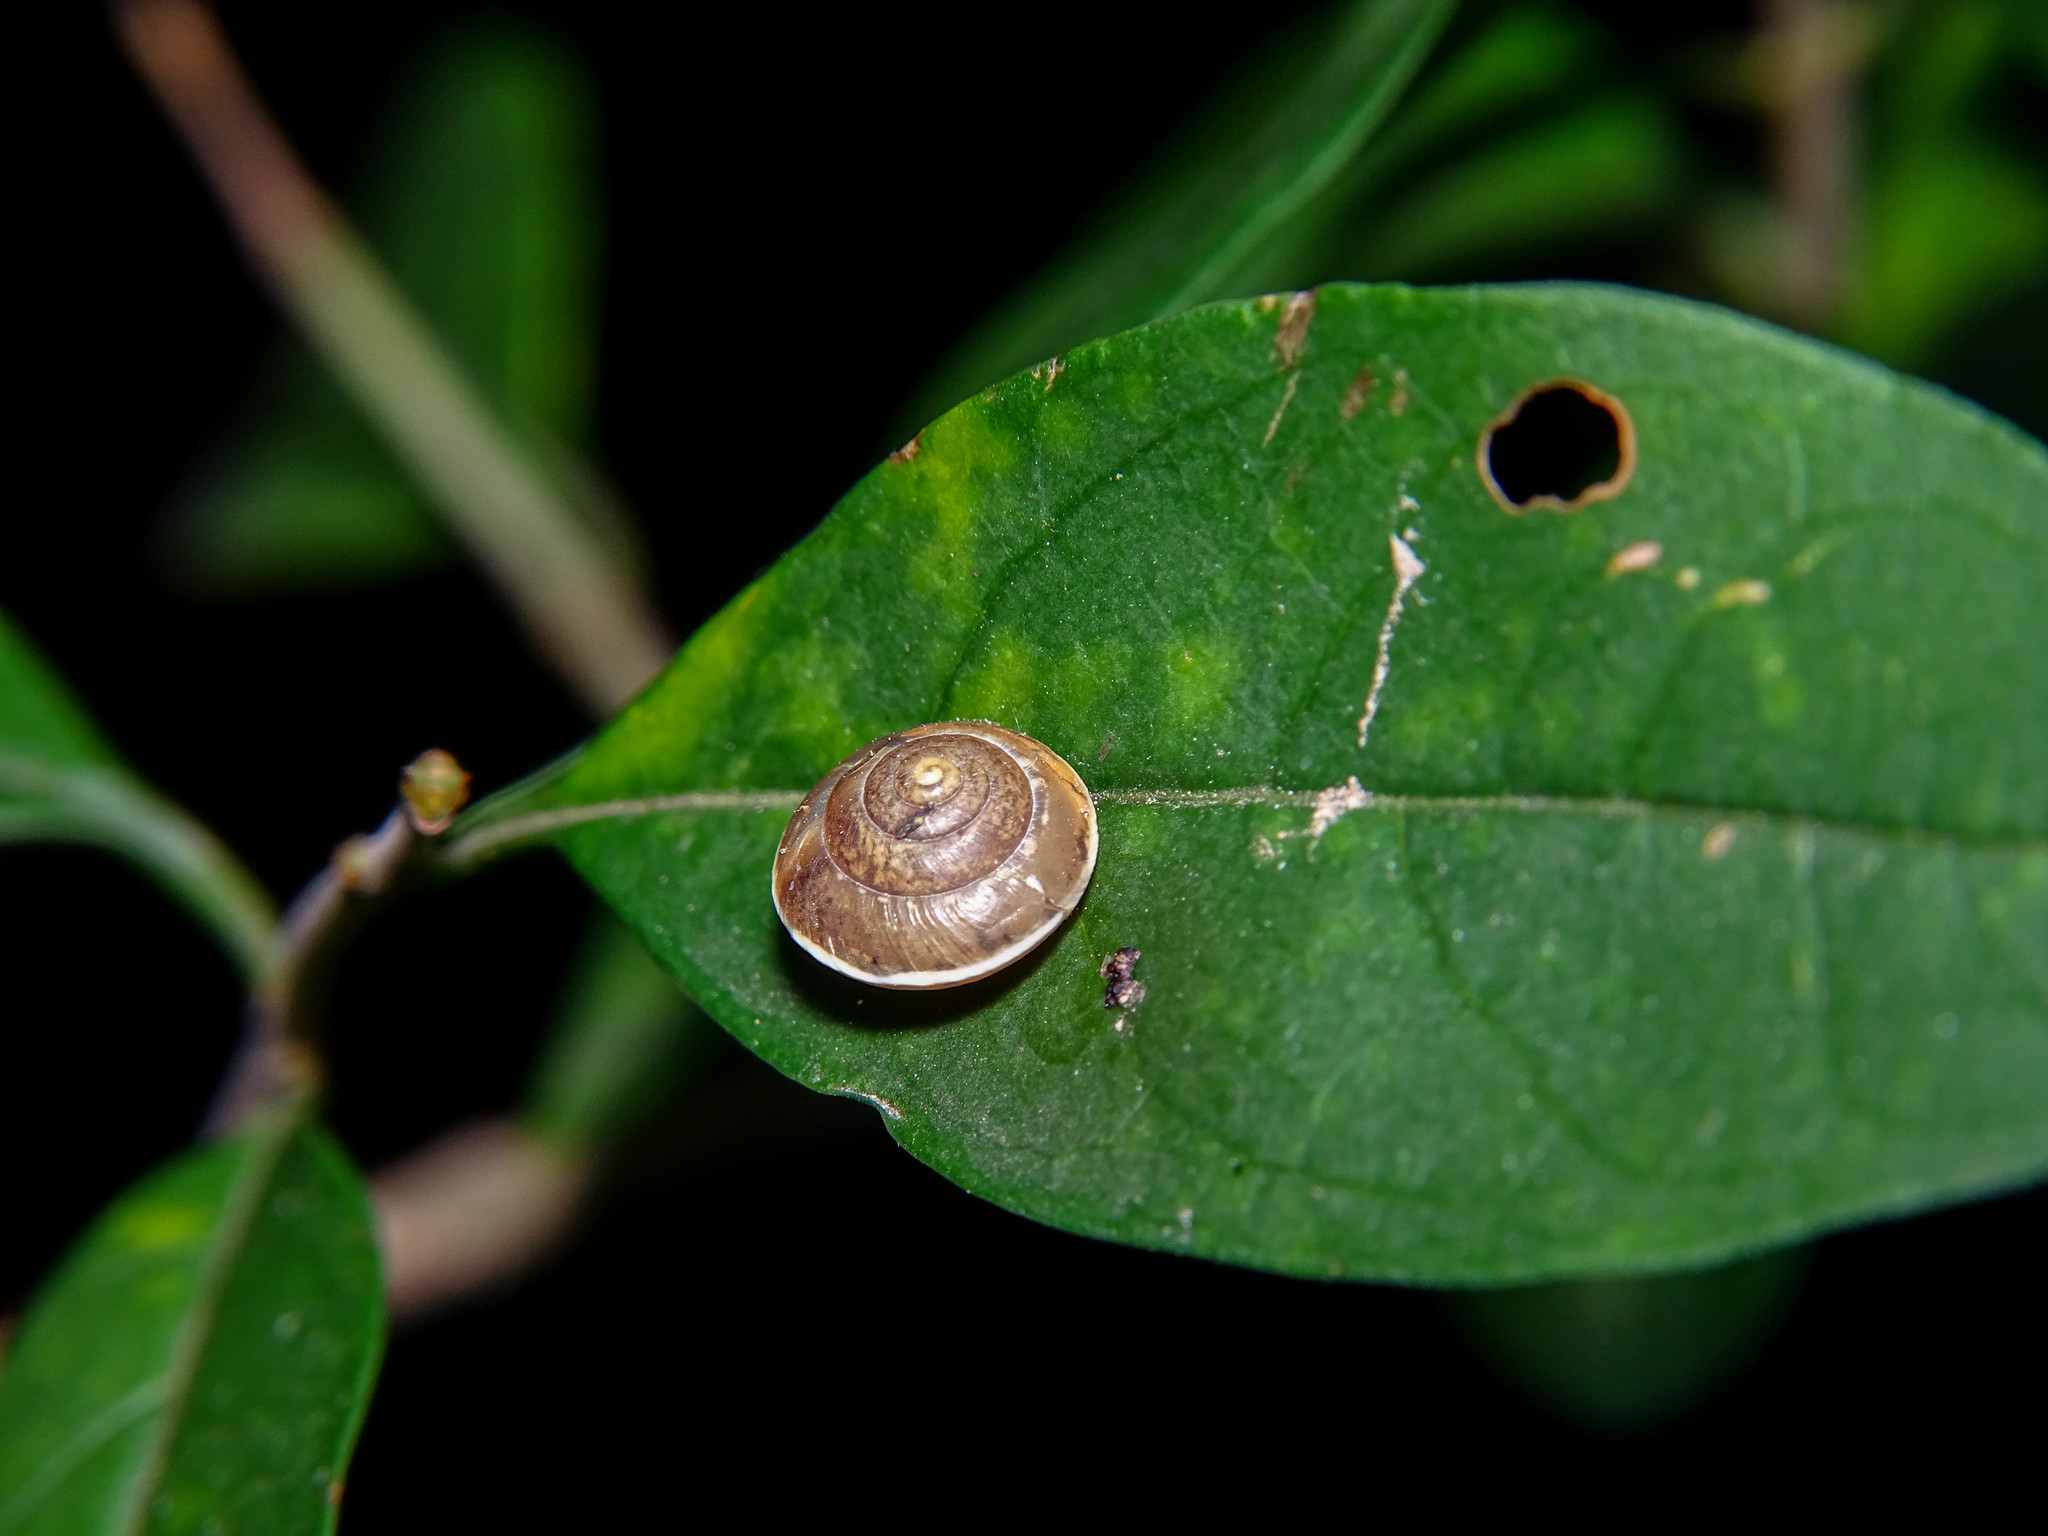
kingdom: Animalia
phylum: Mollusca
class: Gastropoda
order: Stylommatophora
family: Hygromiidae
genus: Hygromia
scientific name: Hygromia cinctella
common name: Girdled snail
